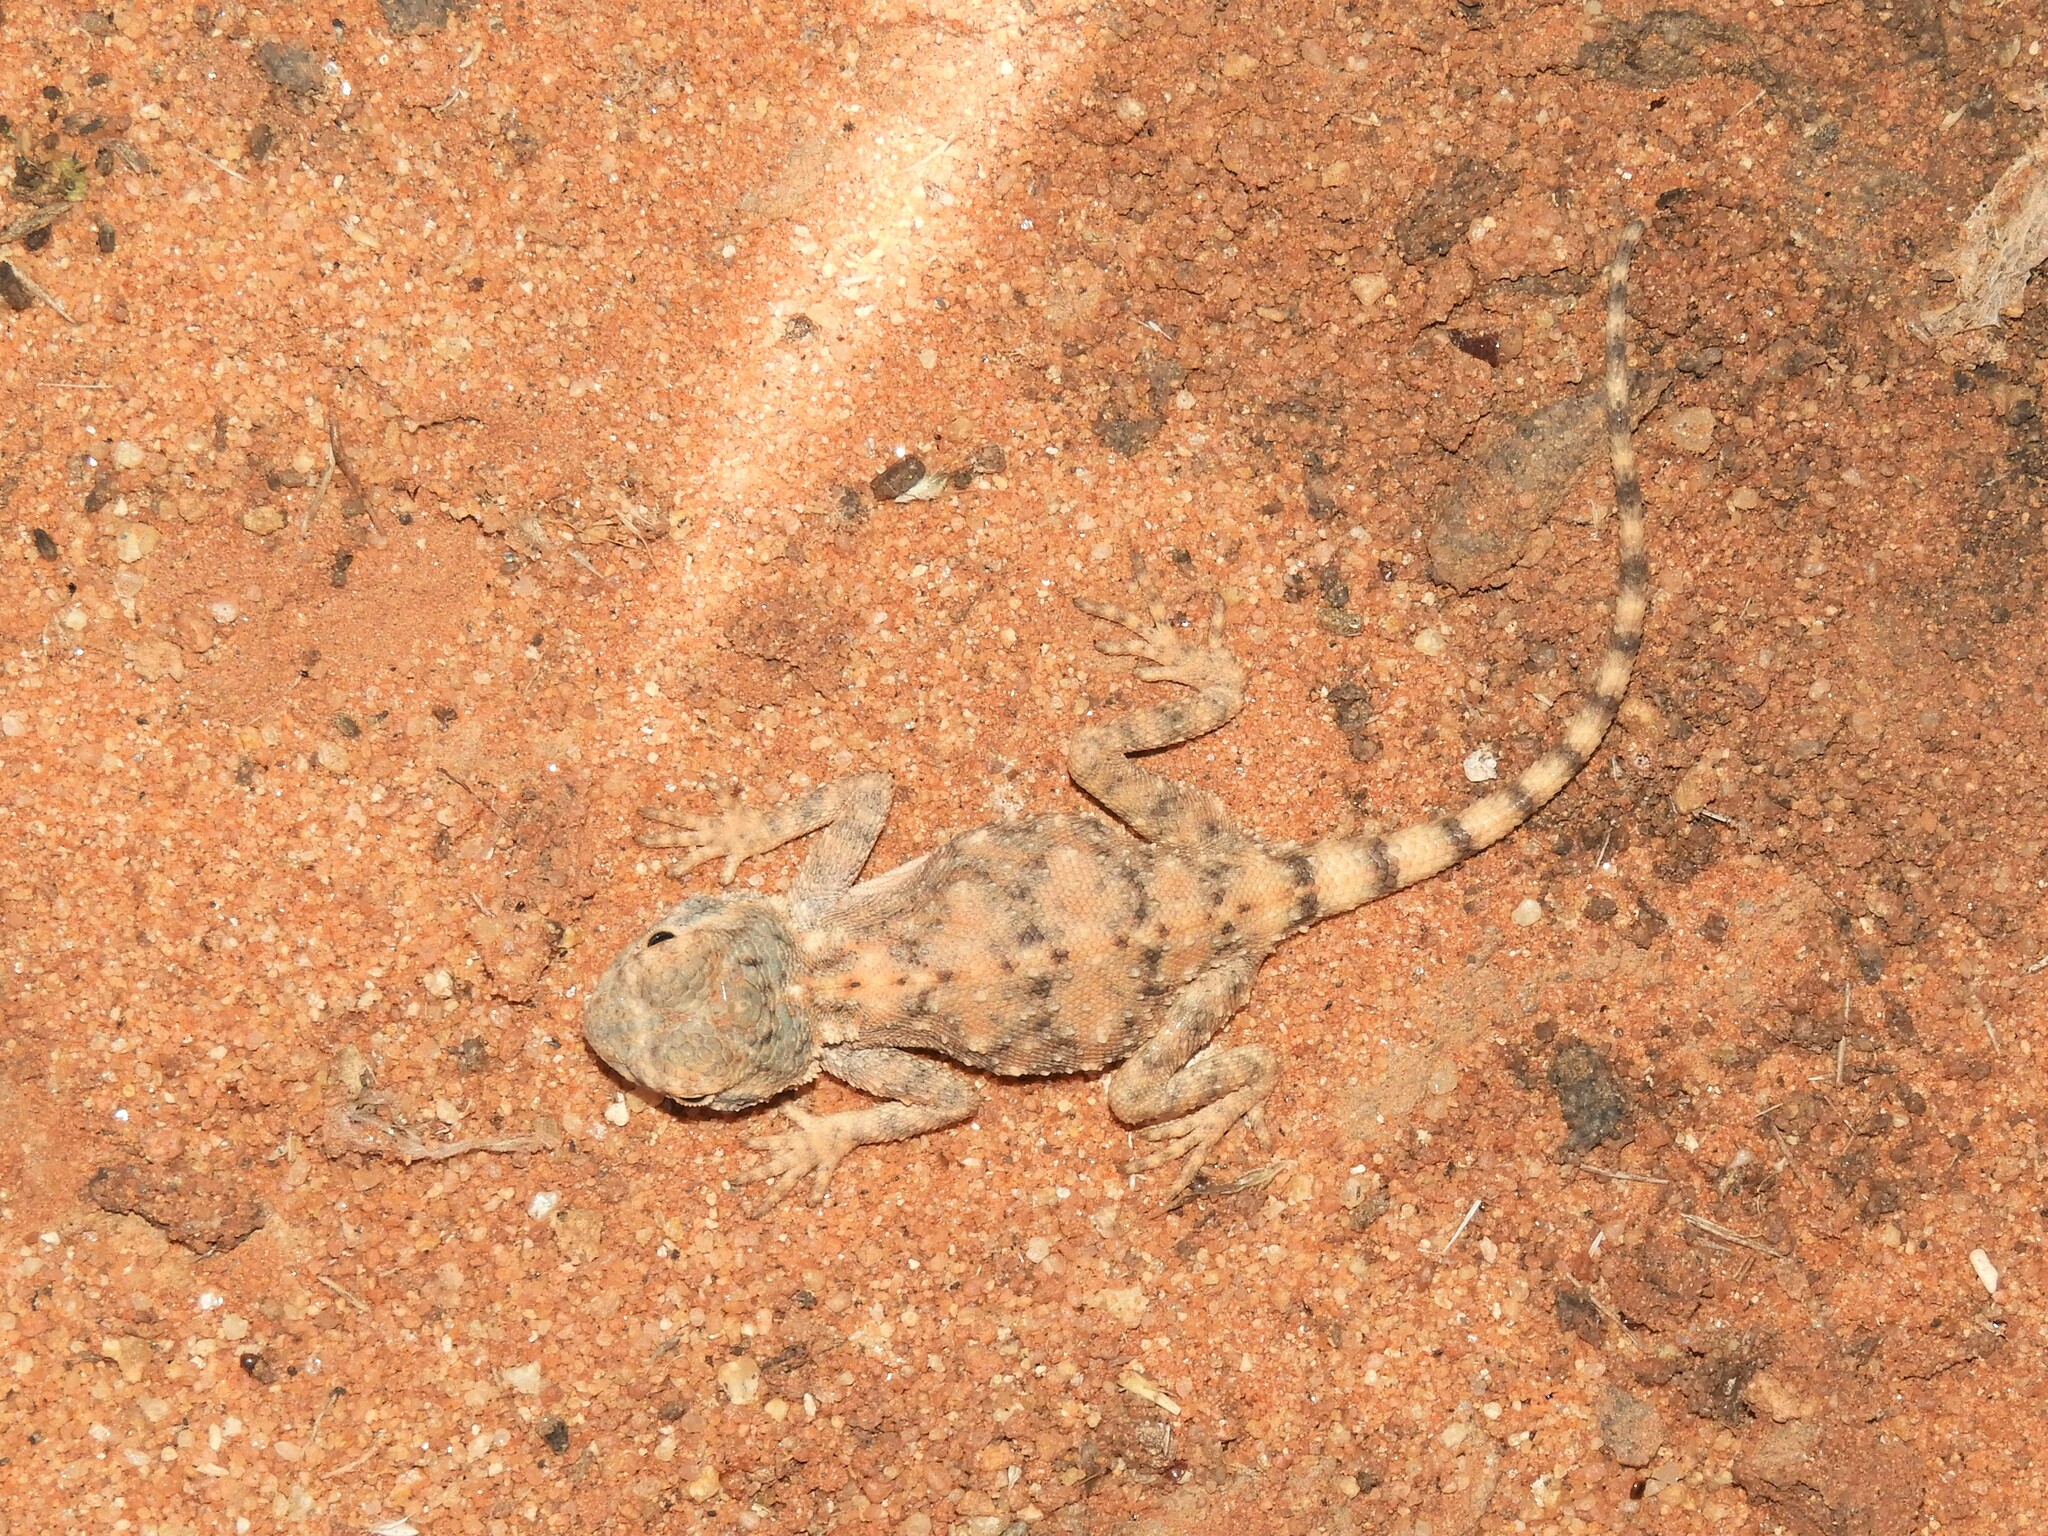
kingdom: Animalia
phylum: Chordata
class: Squamata
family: Agamidae
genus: Agama
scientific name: Agama anchietae
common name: Anchieta's agama
